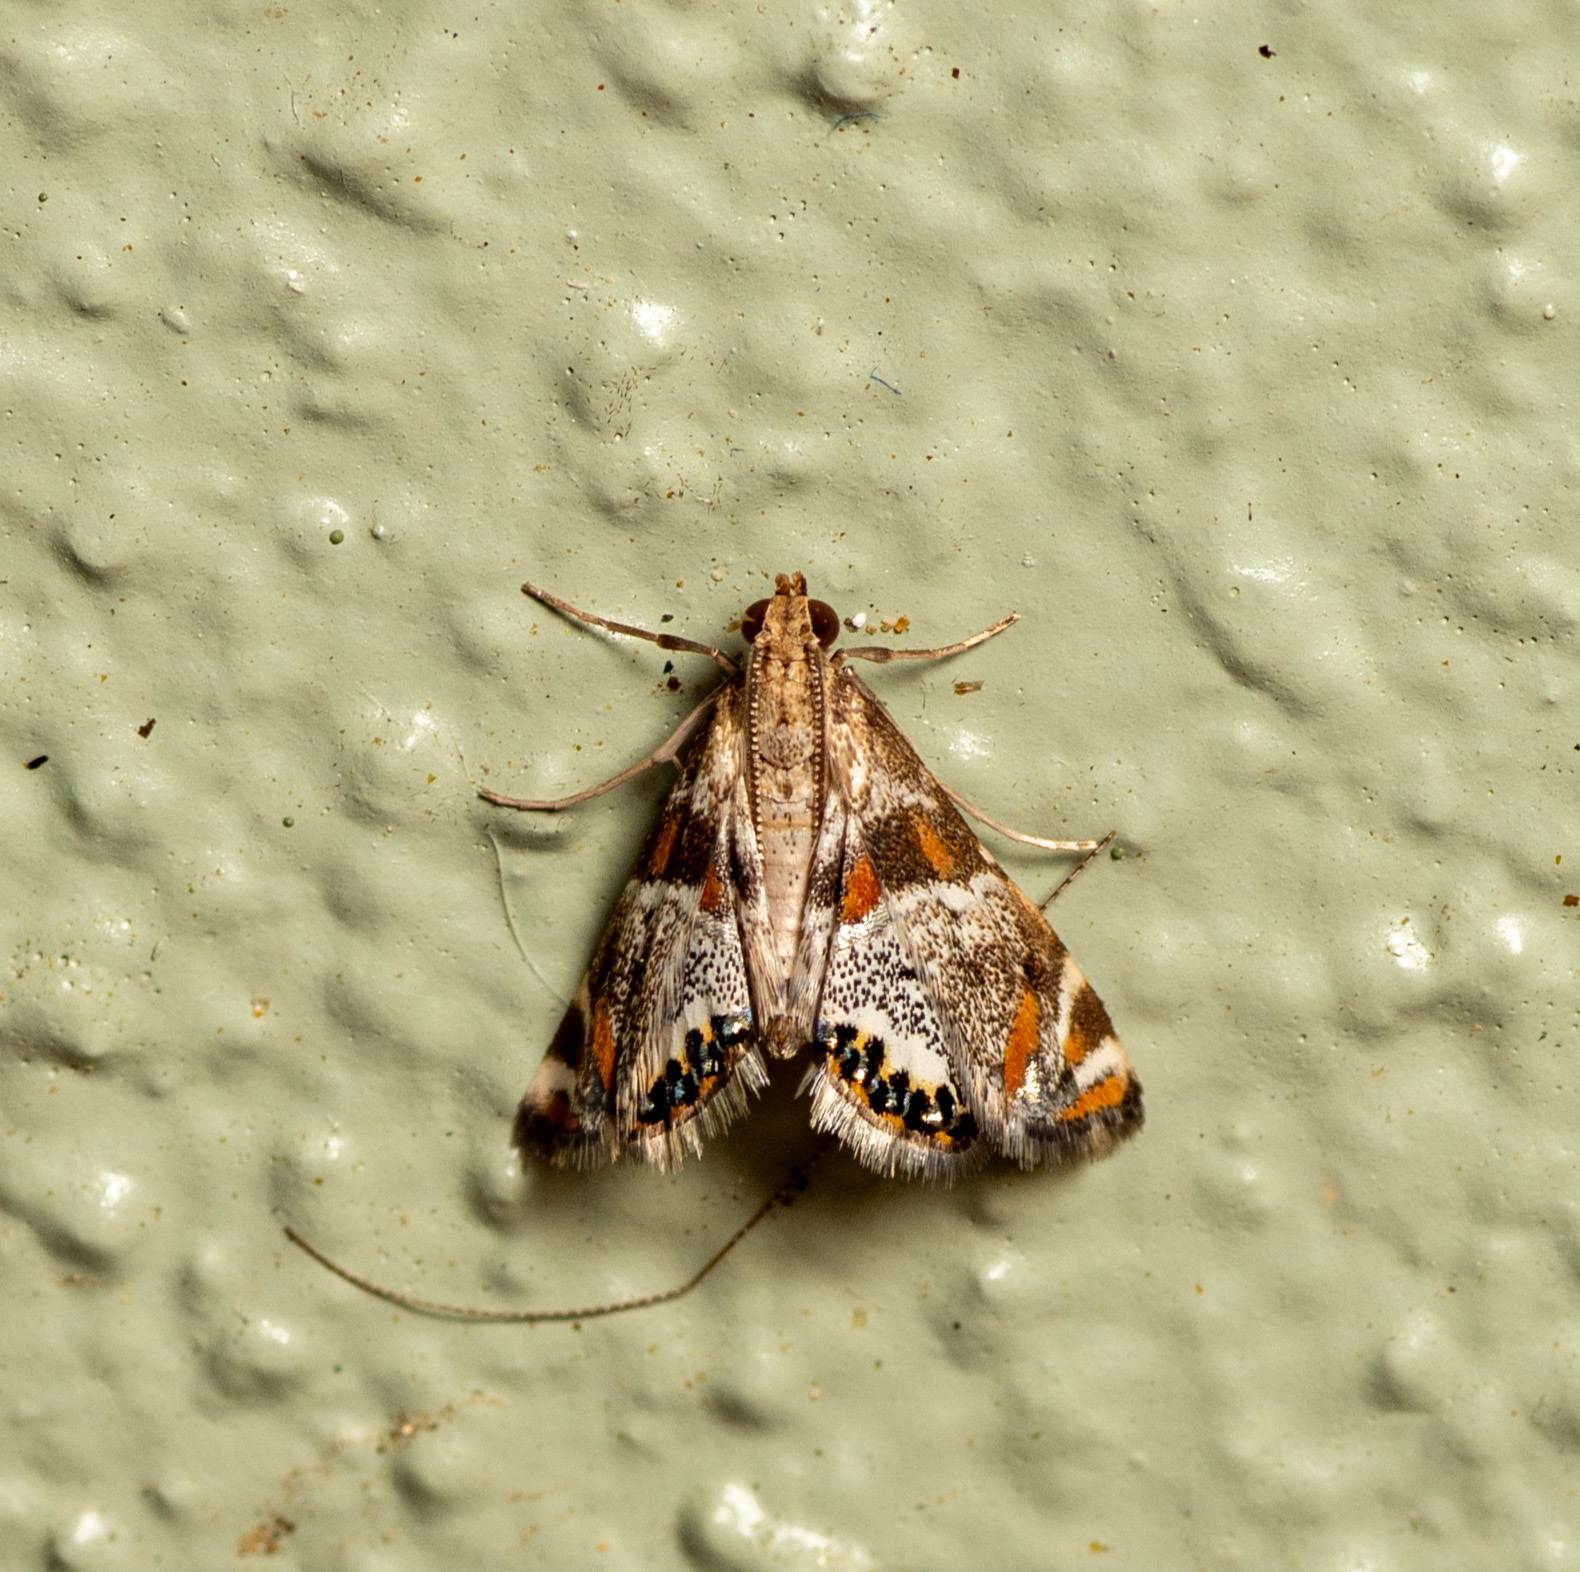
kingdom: Animalia
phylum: Arthropoda
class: Insecta
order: Lepidoptera
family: Crambidae
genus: Petrophila
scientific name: Petrophila jaliscalis
